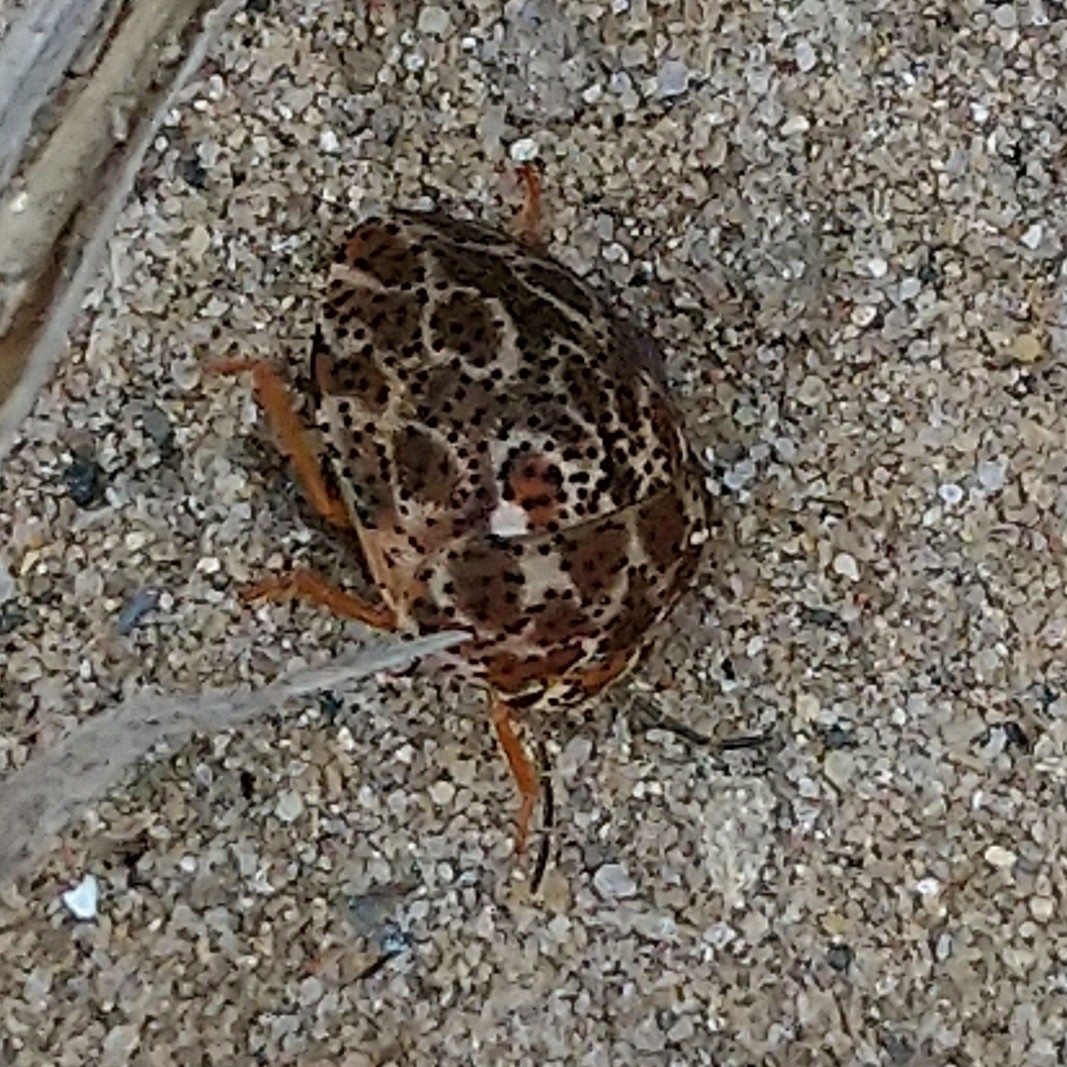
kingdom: Animalia
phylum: Arthropoda
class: Insecta
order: Hemiptera
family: Scutelleridae
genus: Sphaerocoris
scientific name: Sphaerocoris
